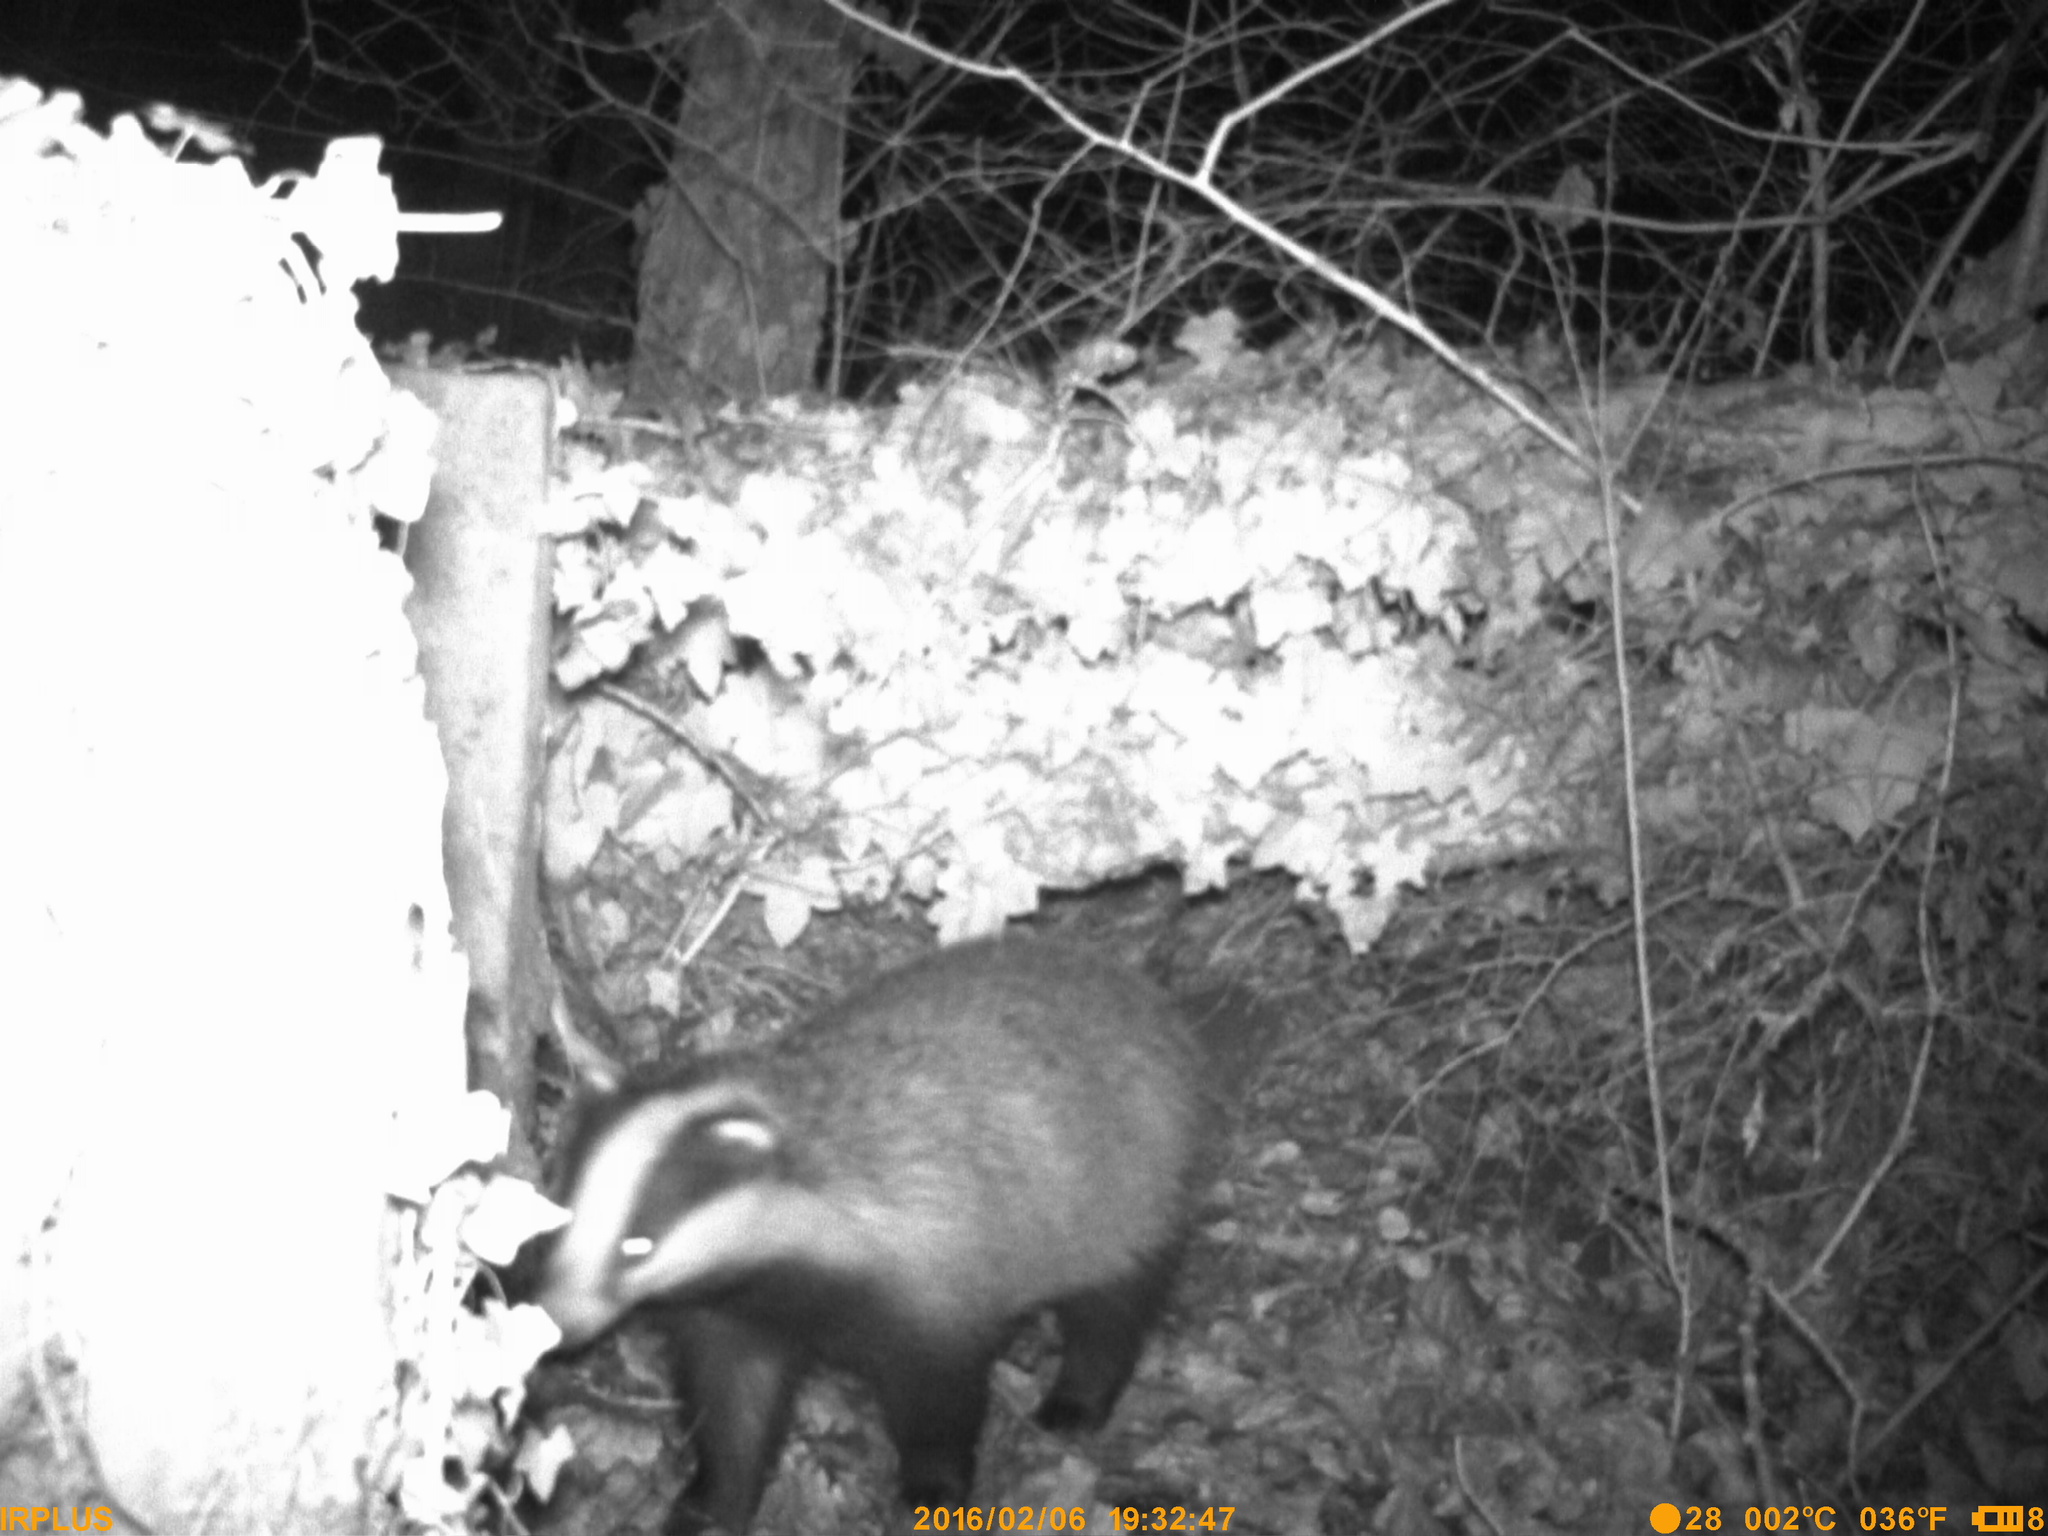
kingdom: Animalia
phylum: Chordata
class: Mammalia
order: Carnivora
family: Mustelidae
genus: Meles
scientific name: Meles meles
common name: Eurasian badger
